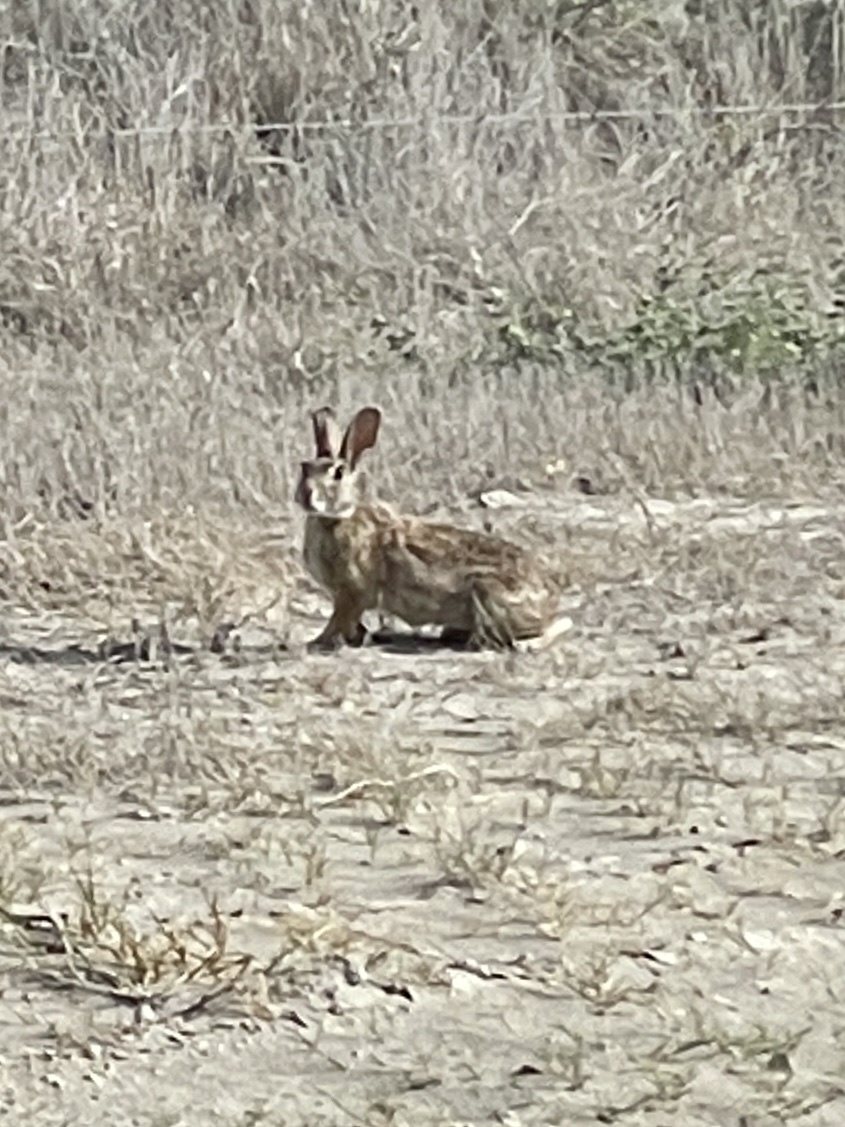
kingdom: Animalia
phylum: Chordata
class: Mammalia
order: Lagomorpha
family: Leporidae
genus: Sylvilagus
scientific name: Sylvilagus floridanus
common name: Eastern cottontail
